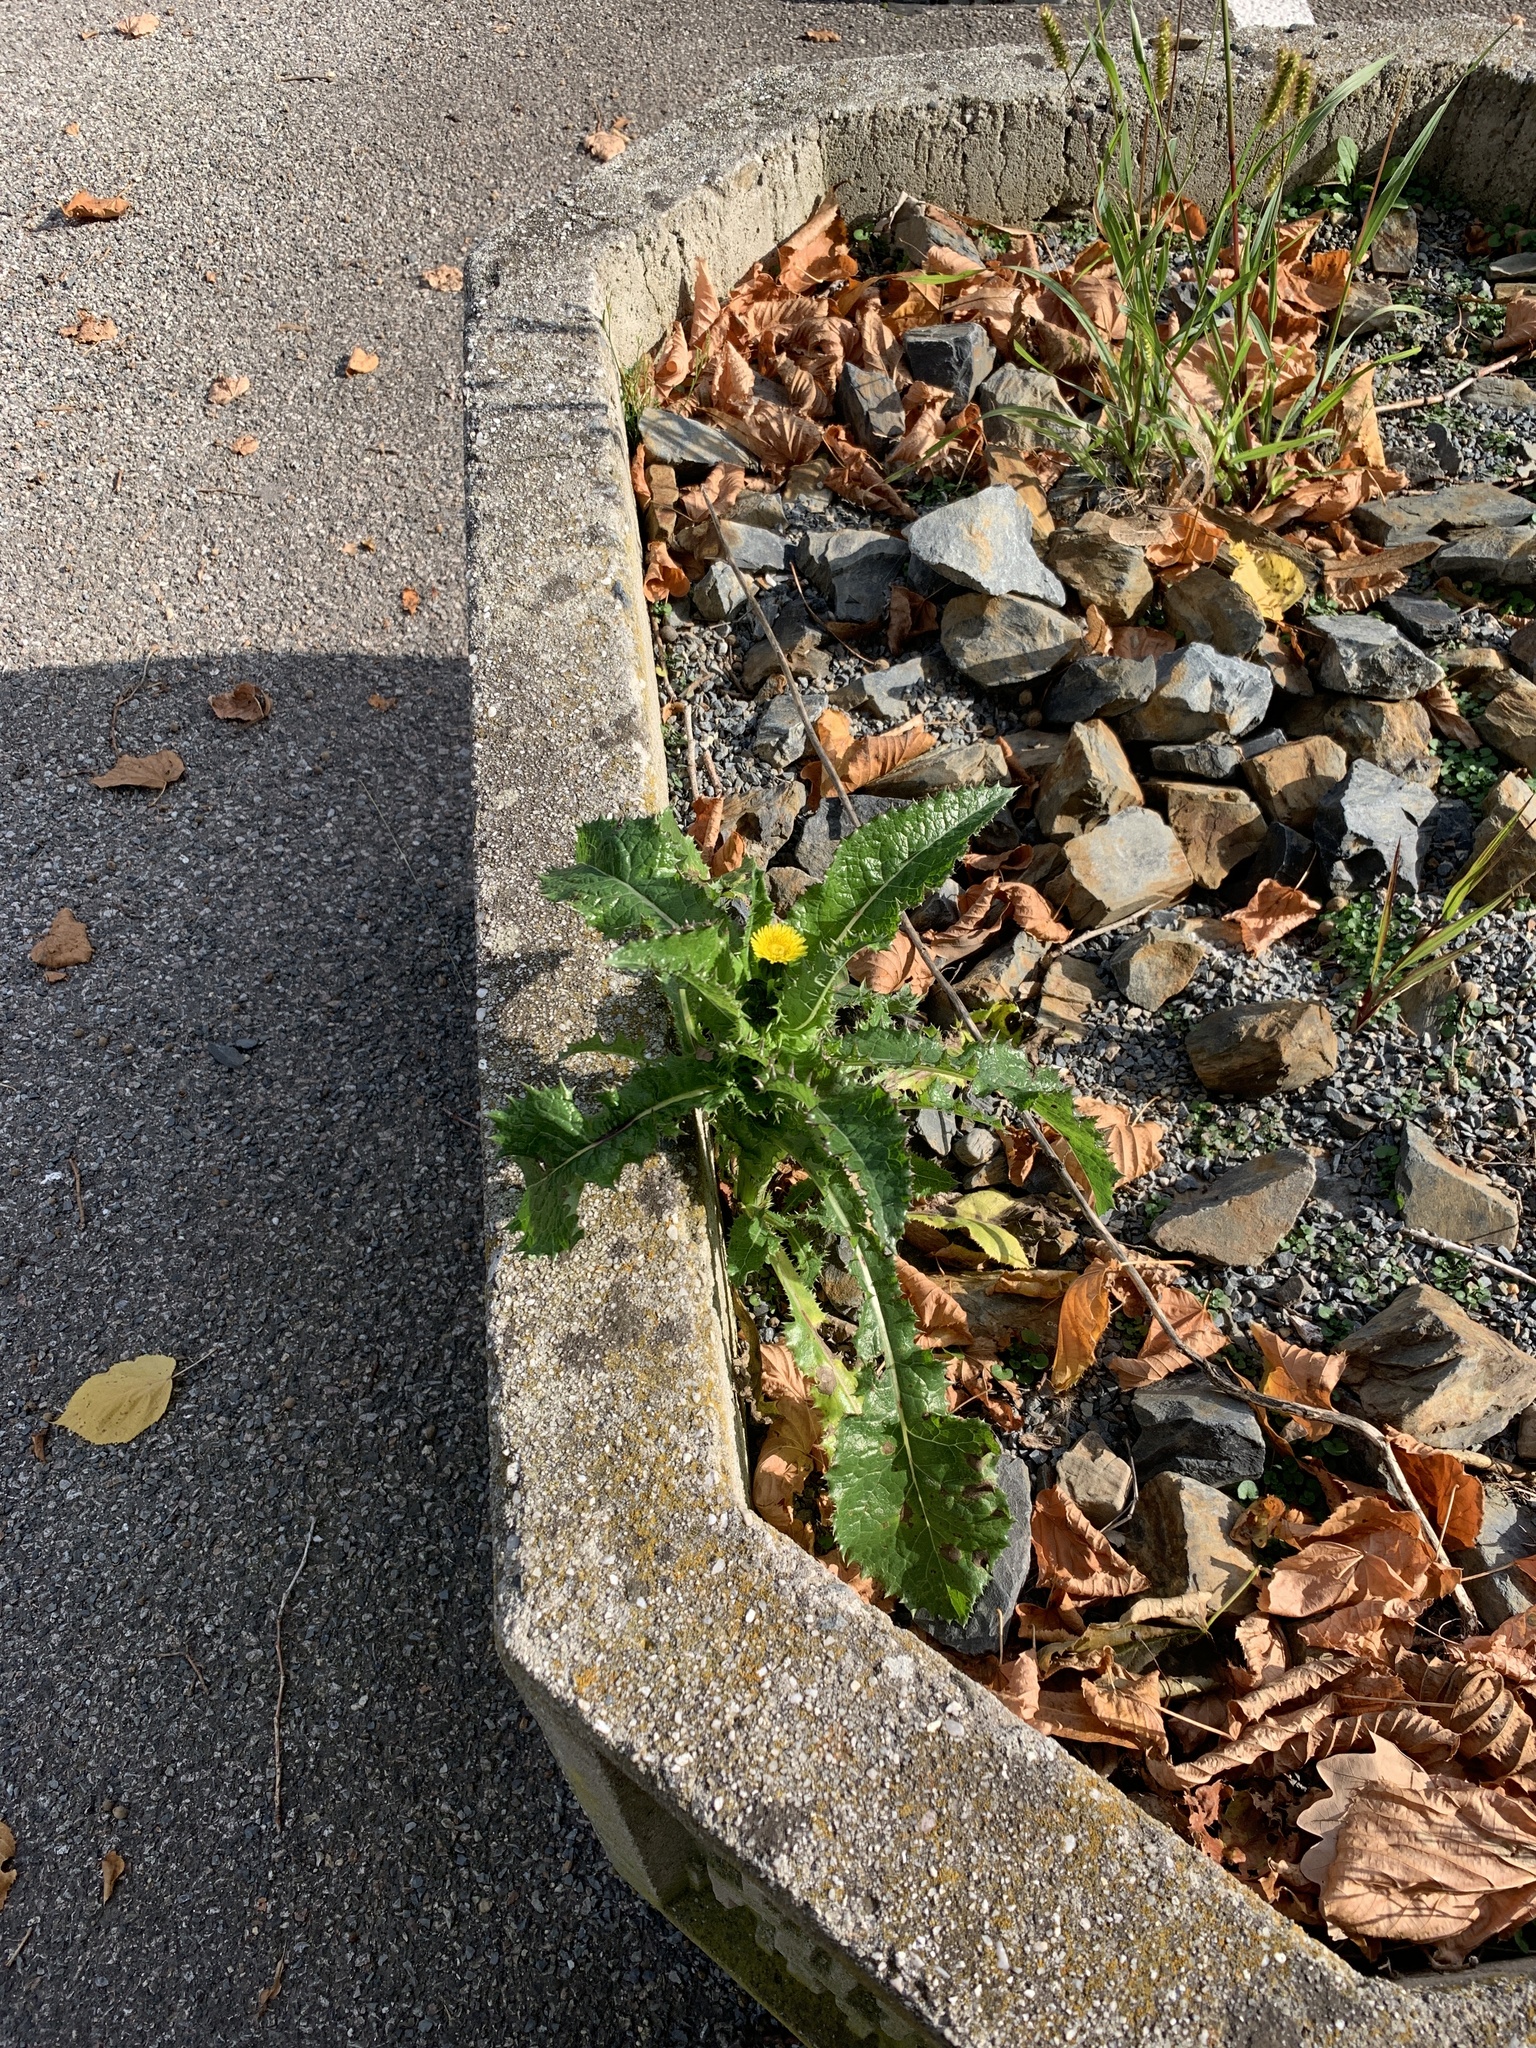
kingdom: Plantae
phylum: Tracheophyta
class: Magnoliopsida
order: Asterales
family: Asteraceae
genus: Sonchus
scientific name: Sonchus asper
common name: Prickly sow-thistle
